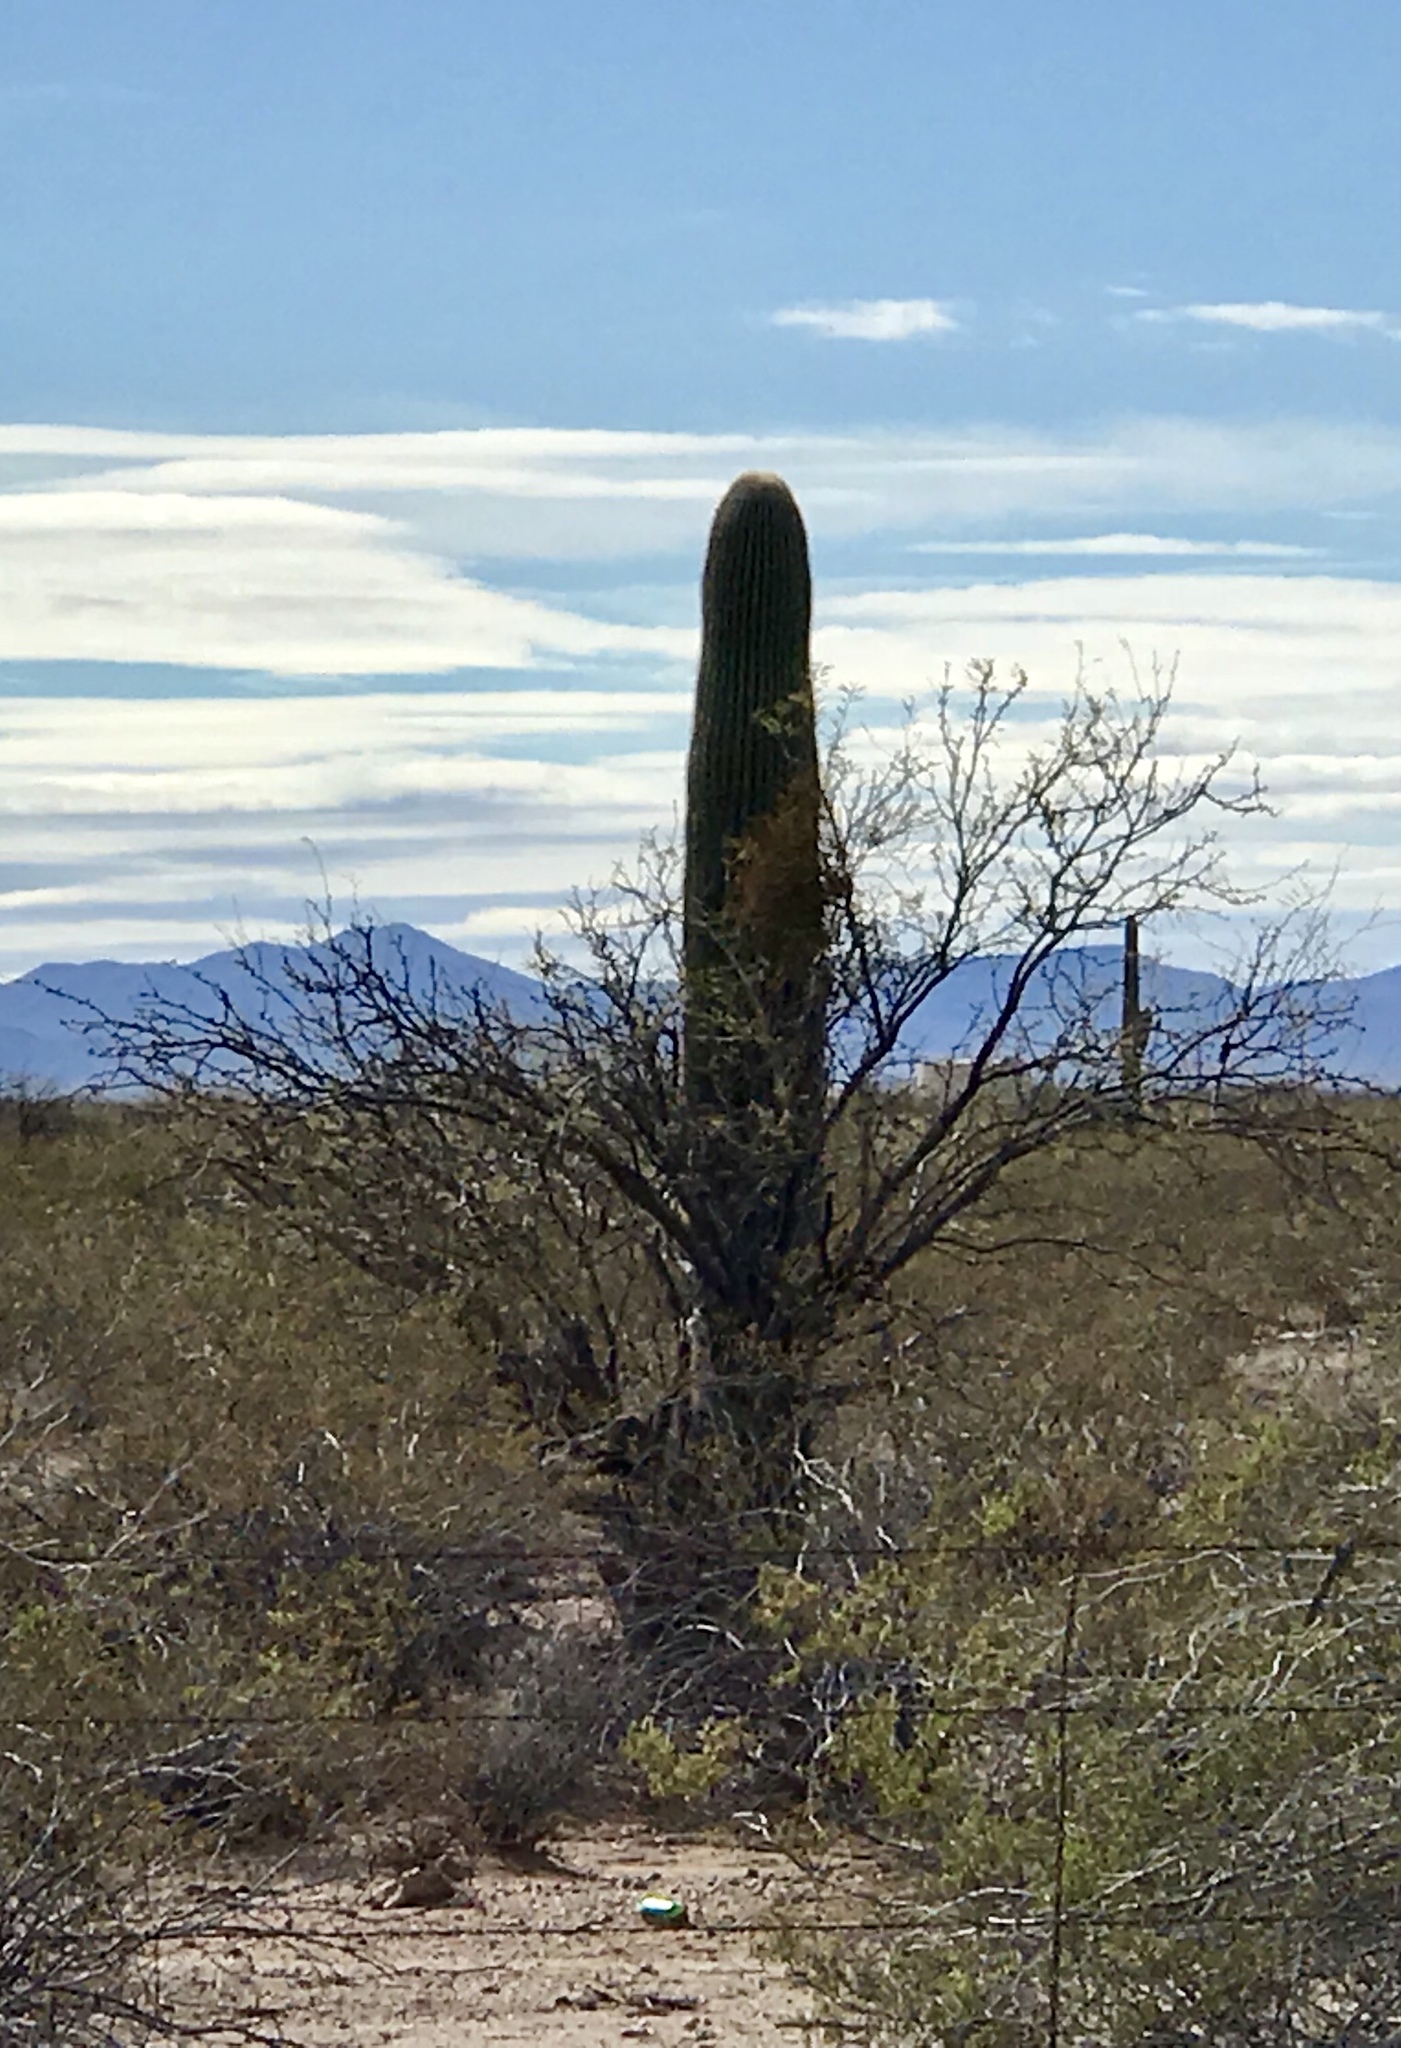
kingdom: Plantae
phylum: Tracheophyta
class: Magnoliopsida
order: Caryophyllales
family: Cactaceae
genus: Carnegiea
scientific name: Carnegiea gigantea
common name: Saguaro
